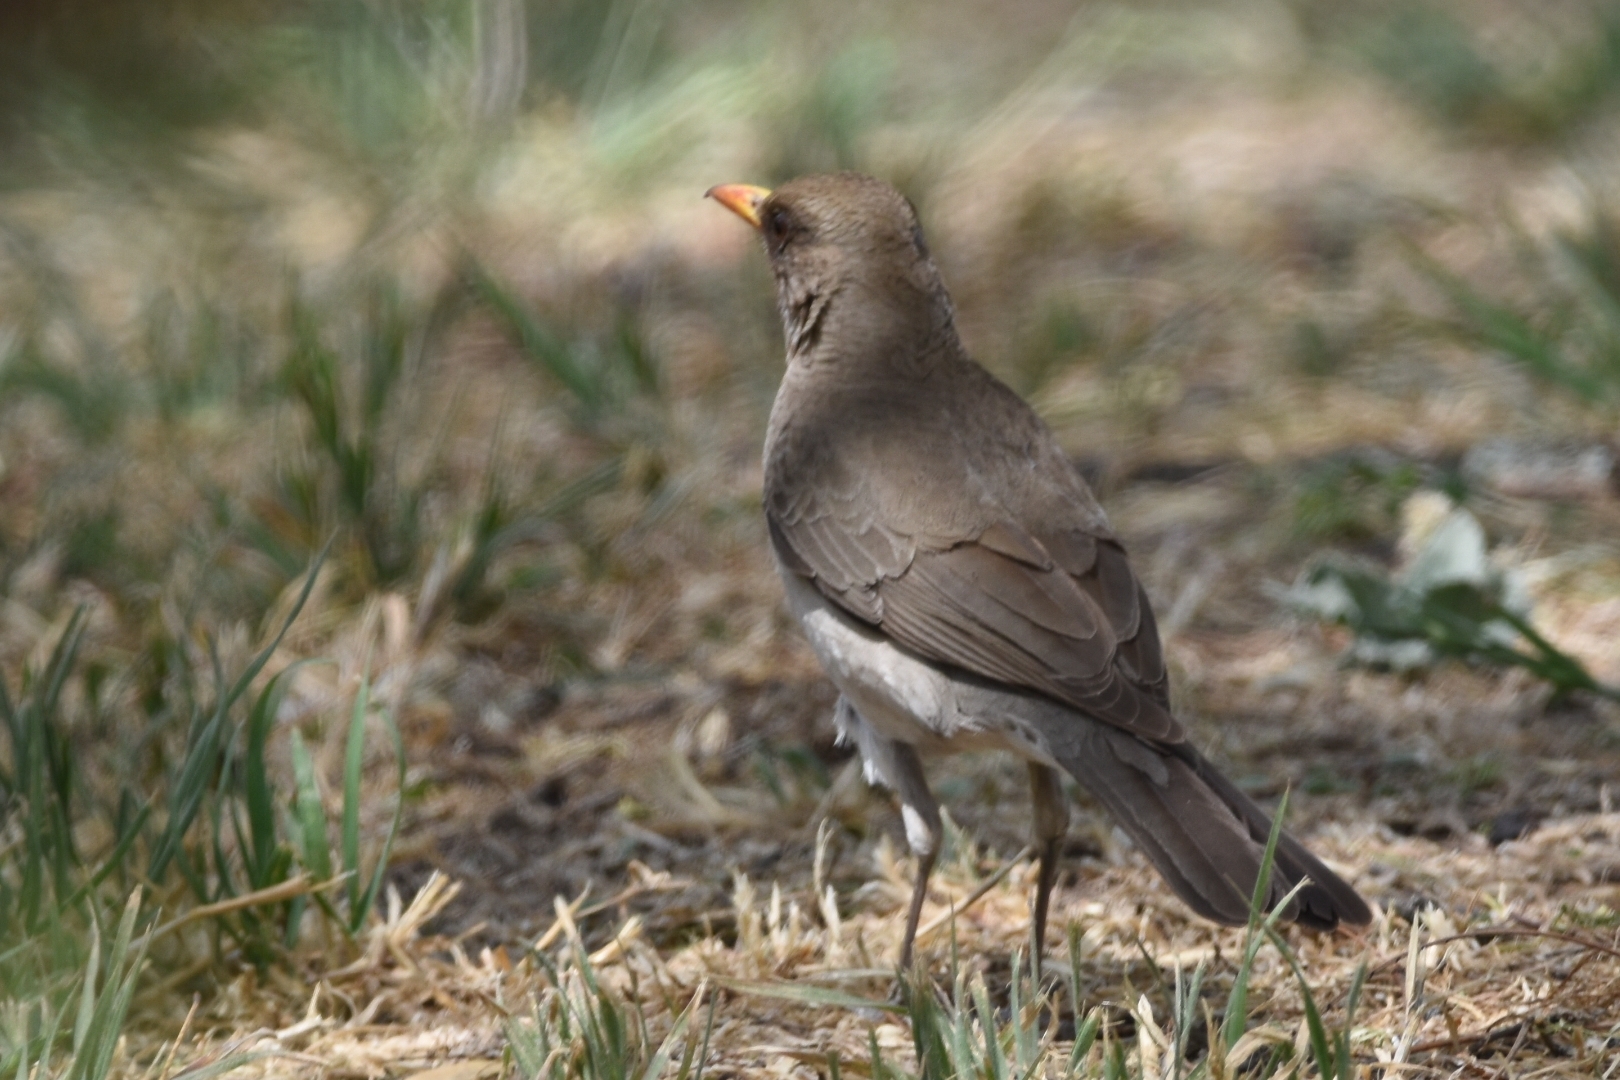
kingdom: Animalia
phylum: Chordata
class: Aves
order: Passeriformes
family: Turdidae
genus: Turdus
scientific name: Turdus amaurochalinus
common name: Creamy-bellied thrush
